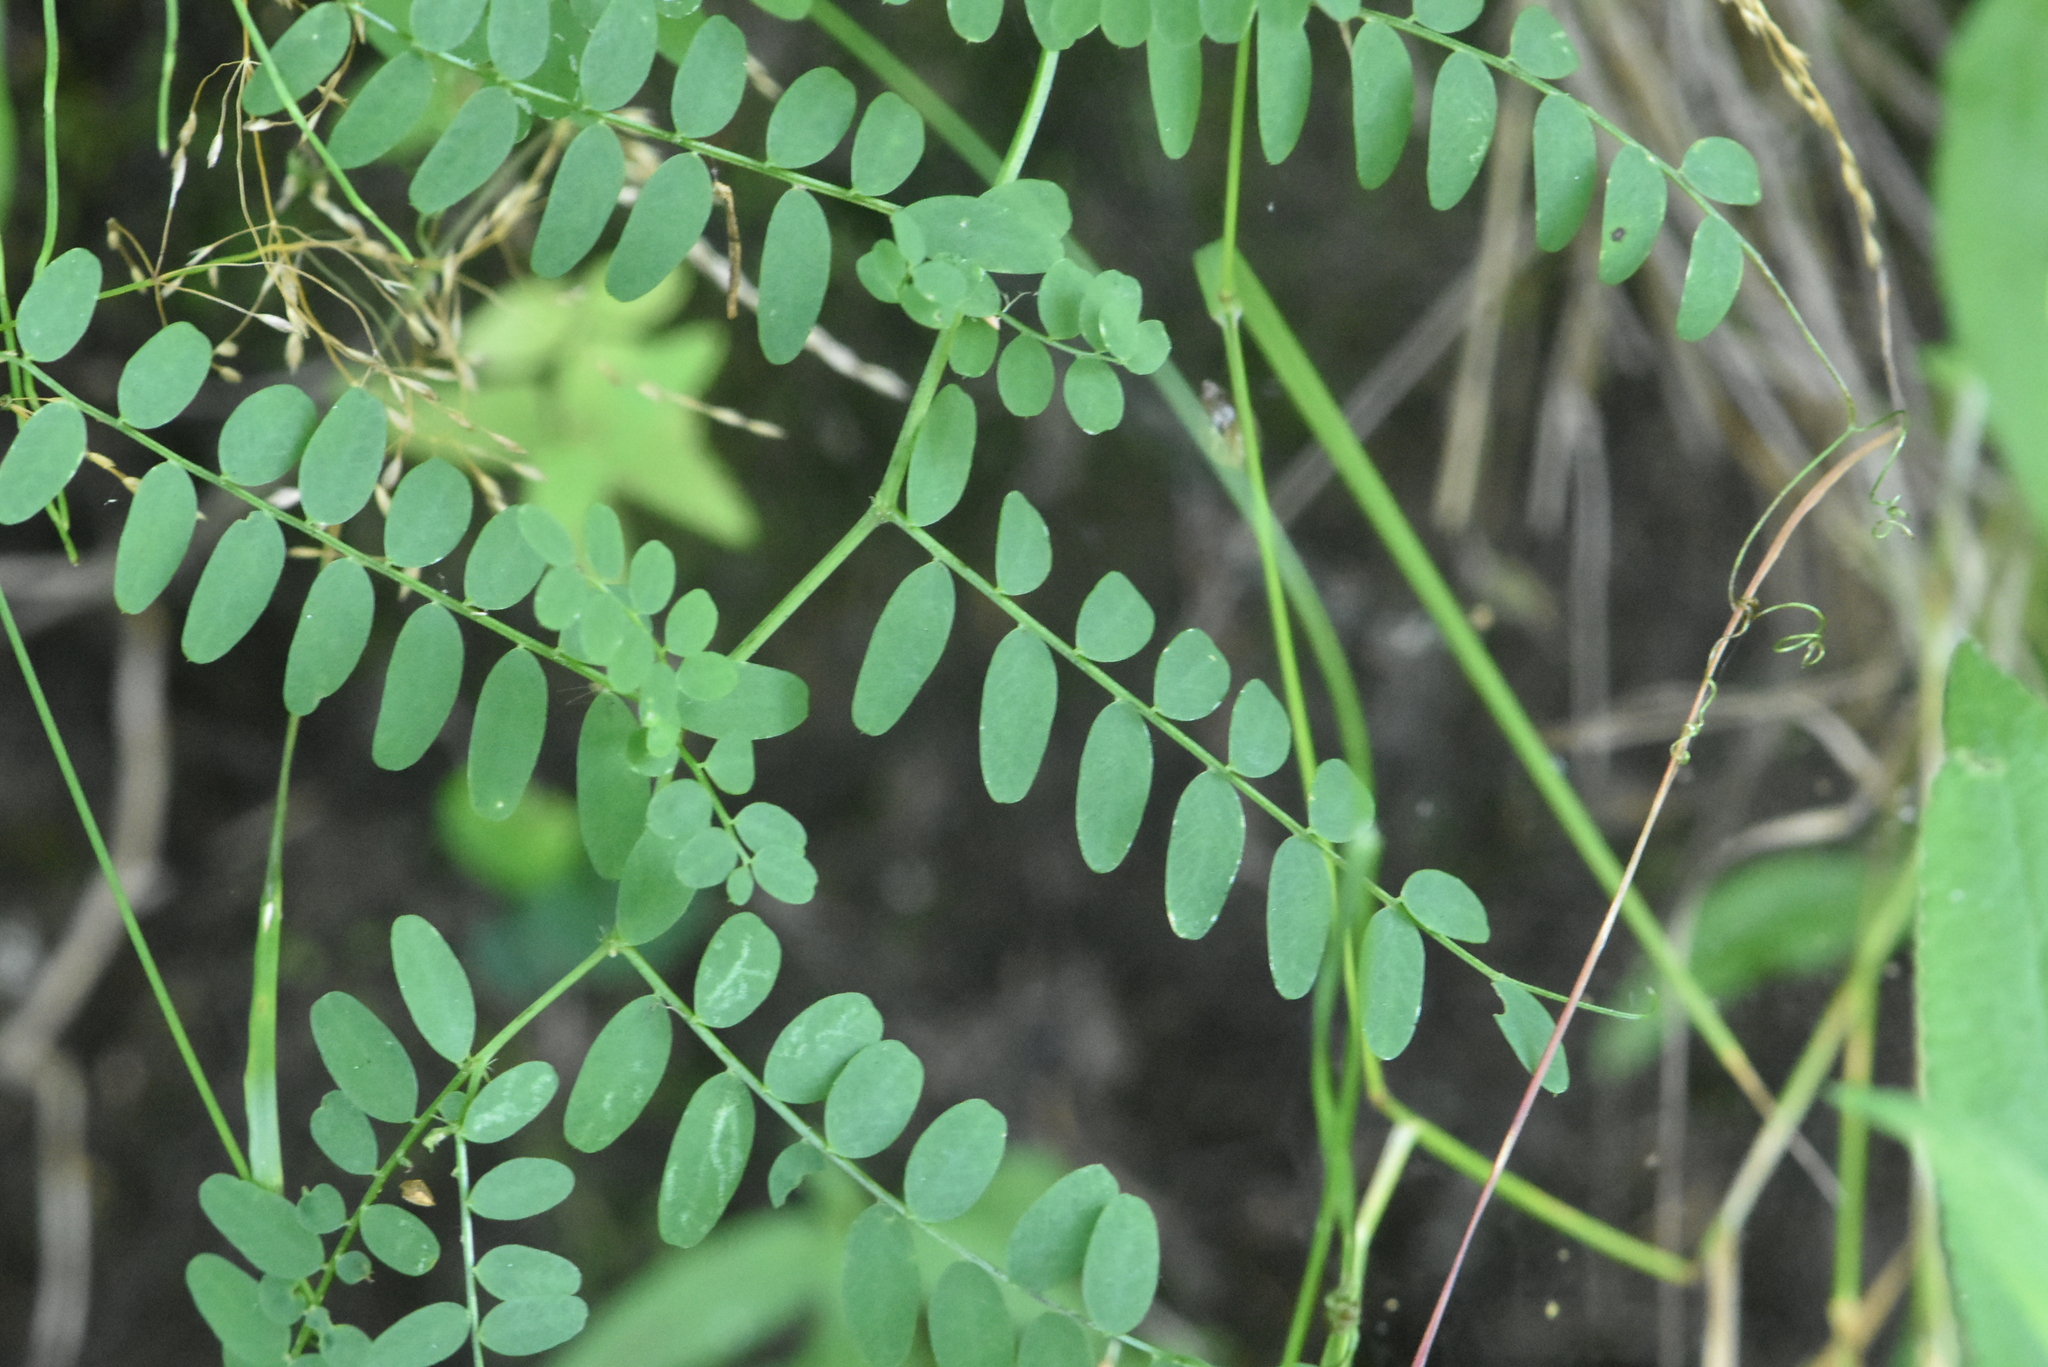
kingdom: Plantae
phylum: Tracheophyta
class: Magnoliopsida
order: Fabales
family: Fabaceae
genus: Vicia
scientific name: Vicia sylvatica
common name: Wood vetch
